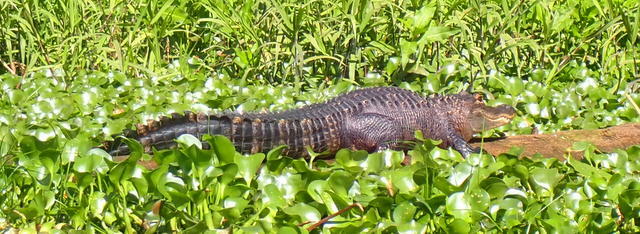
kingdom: Animalia
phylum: Chordata
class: Crocodylia
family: Alligatoridae
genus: Alligator
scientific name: Alligator mississippiensis
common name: American alligator
